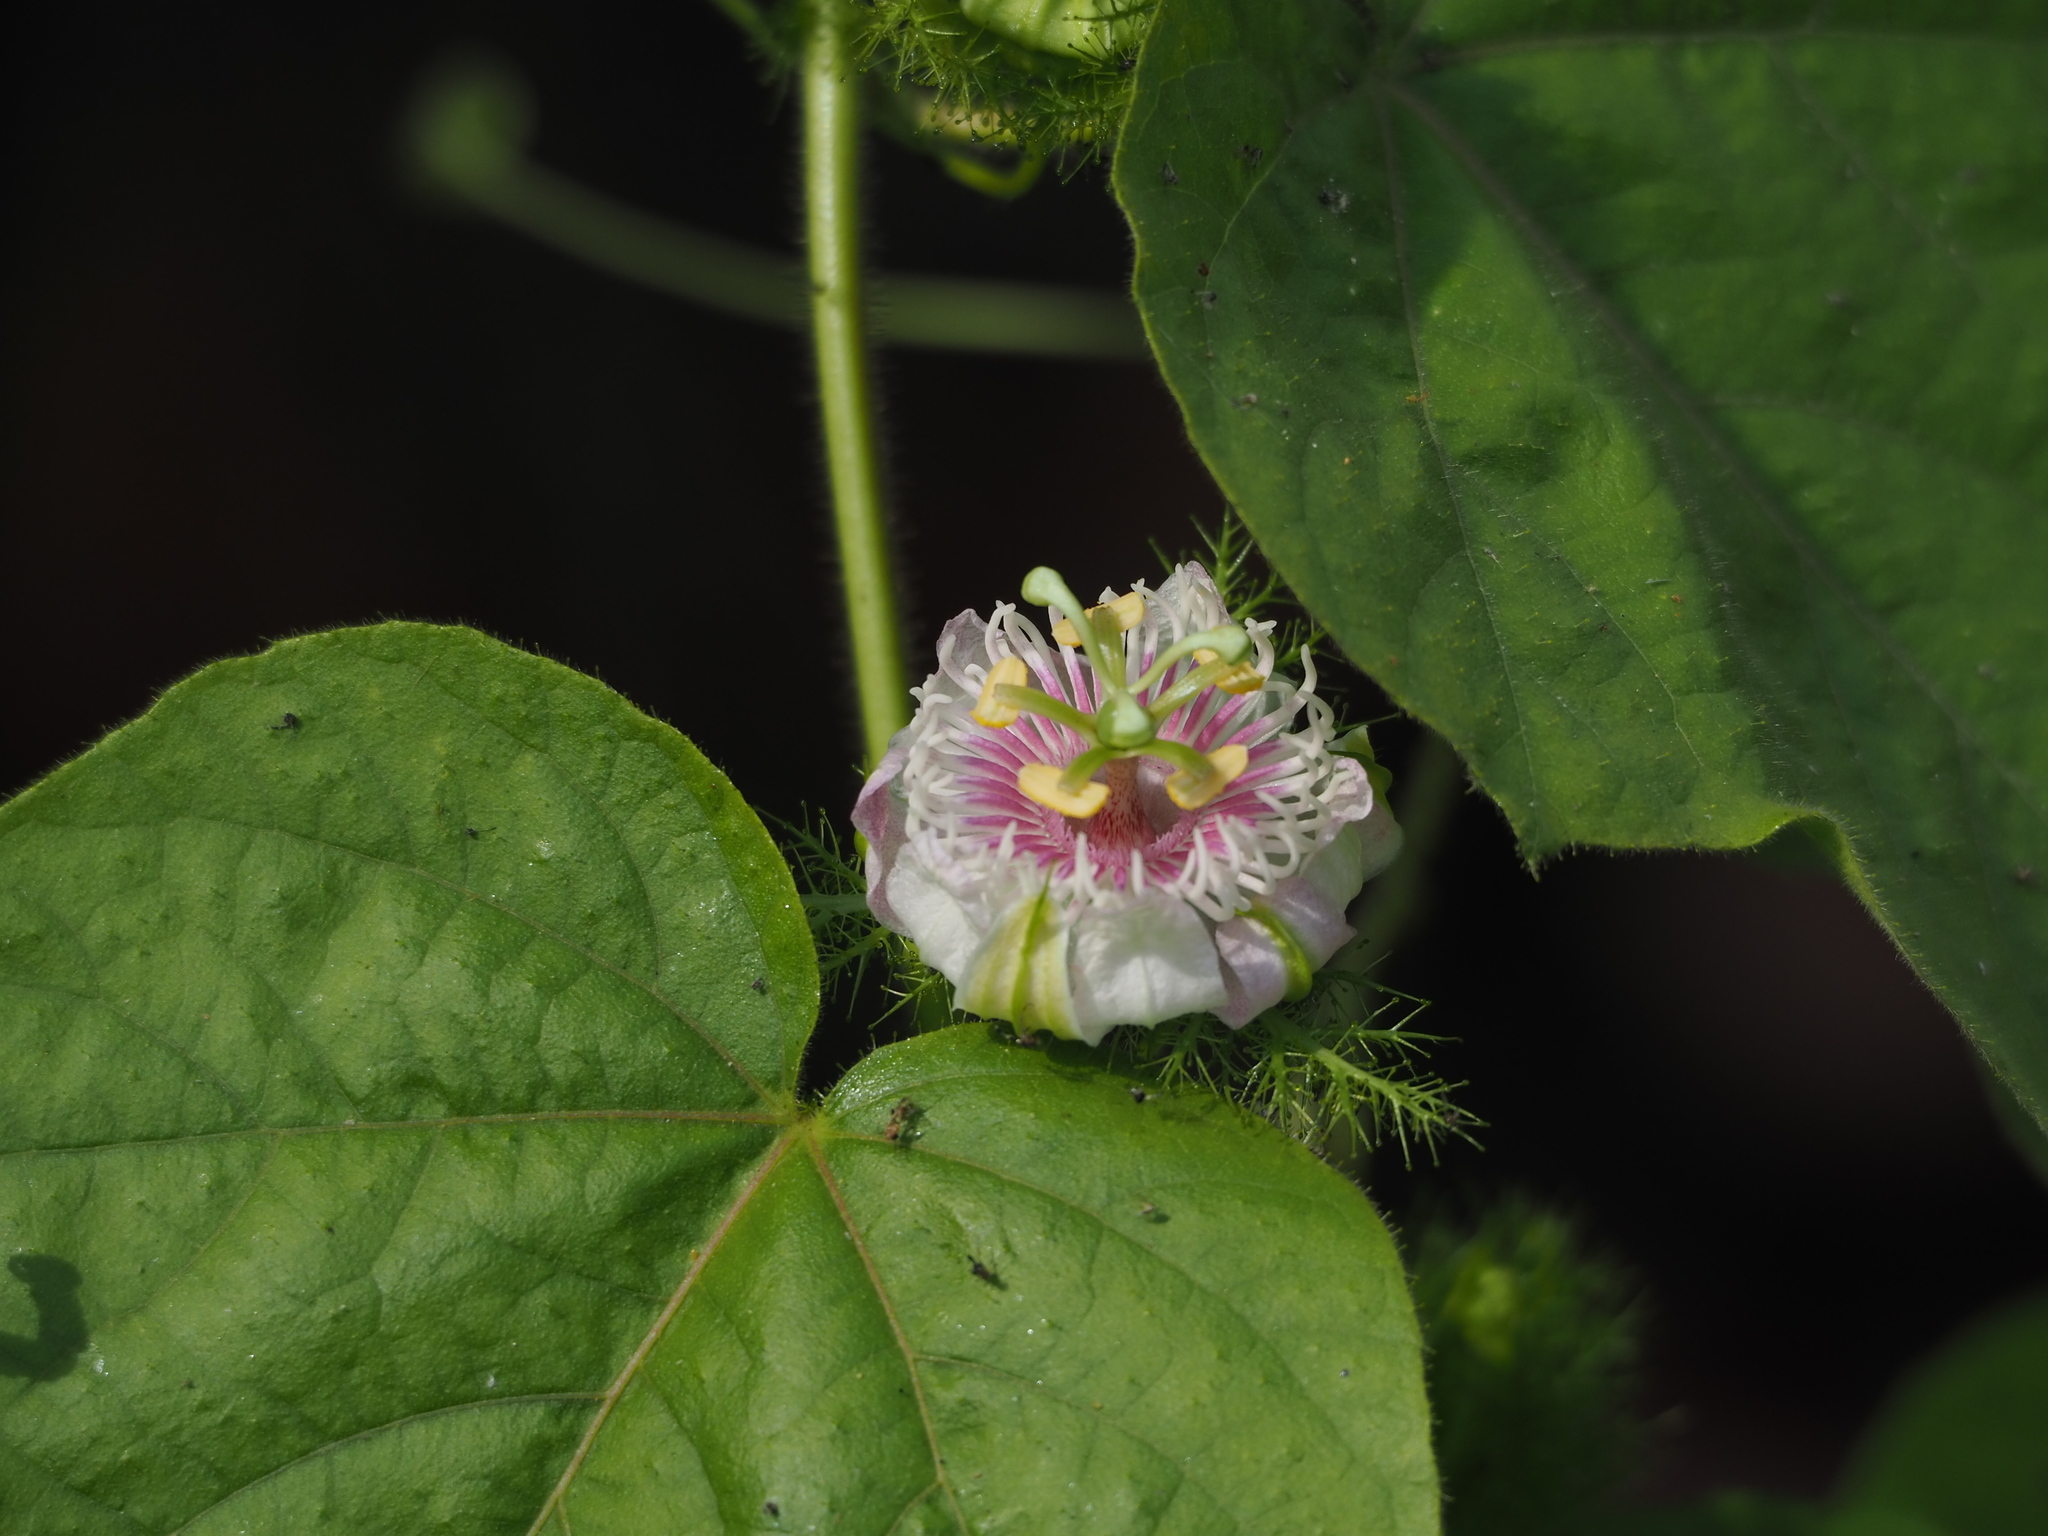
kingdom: Plantae
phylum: Tracheophyta
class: Magnoliopsida
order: Malpighiales
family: Passifloraceae
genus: Passiflora
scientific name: Passiflora vesicaria
